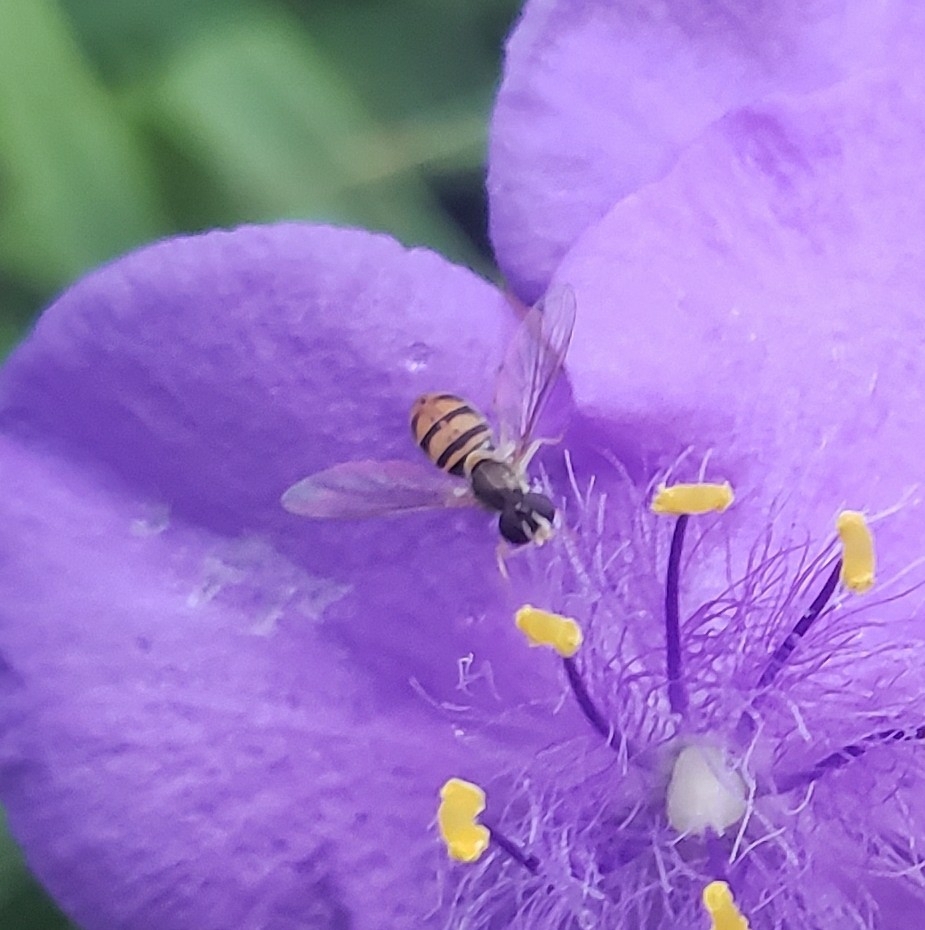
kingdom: Animalia
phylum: Arthropoda
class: Insecta
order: Diptera
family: Syrphidae
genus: Toxomerus
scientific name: Toxomerus marginatus
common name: Syrphid fly
